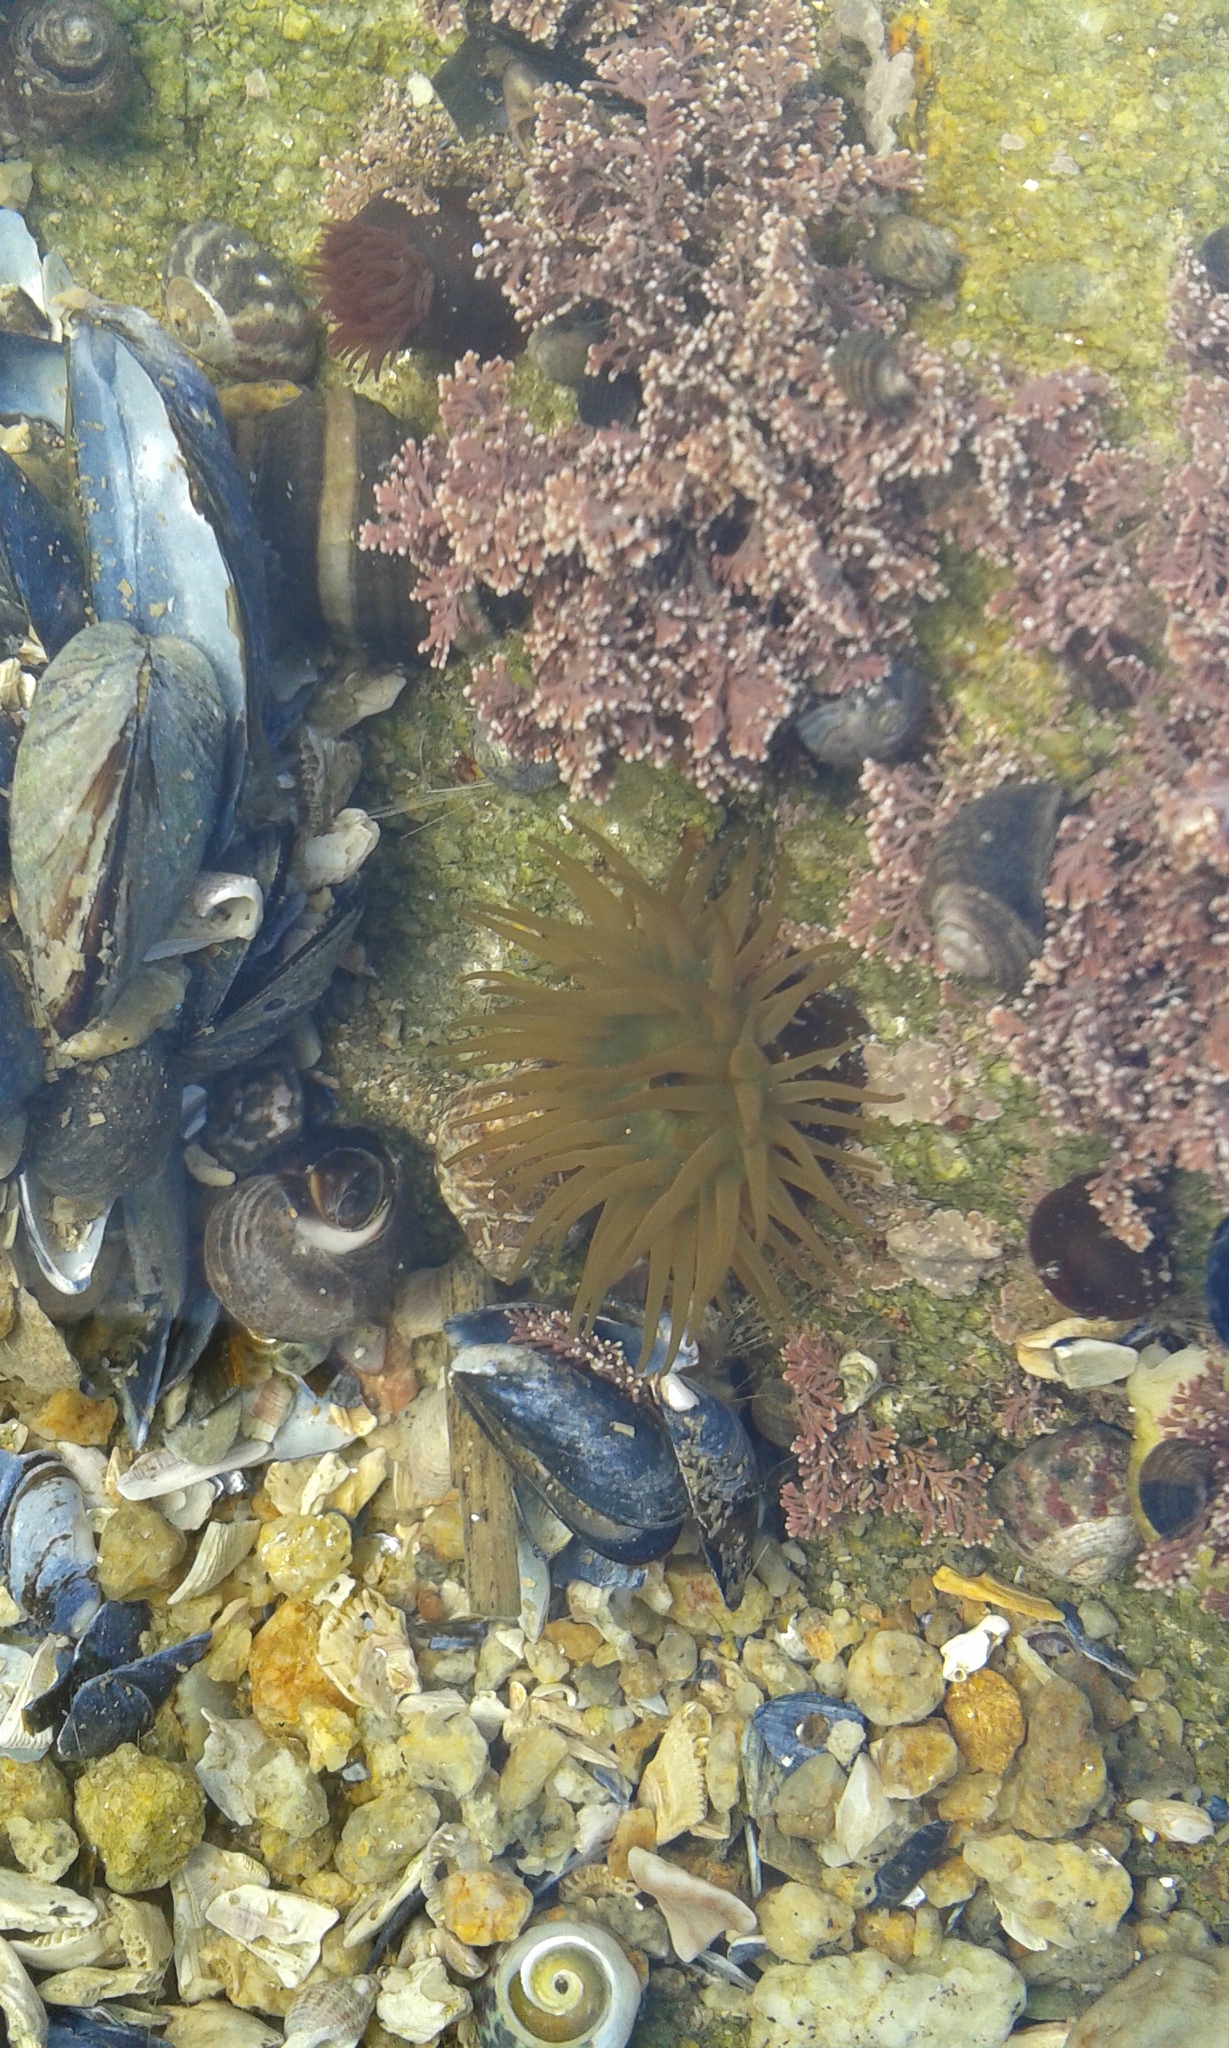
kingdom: Animalia
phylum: Cnidaria
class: Anthozoa
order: Actiniaria
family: Actiniidae
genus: Actinia
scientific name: Actinia equina
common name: Beadlet anemone
